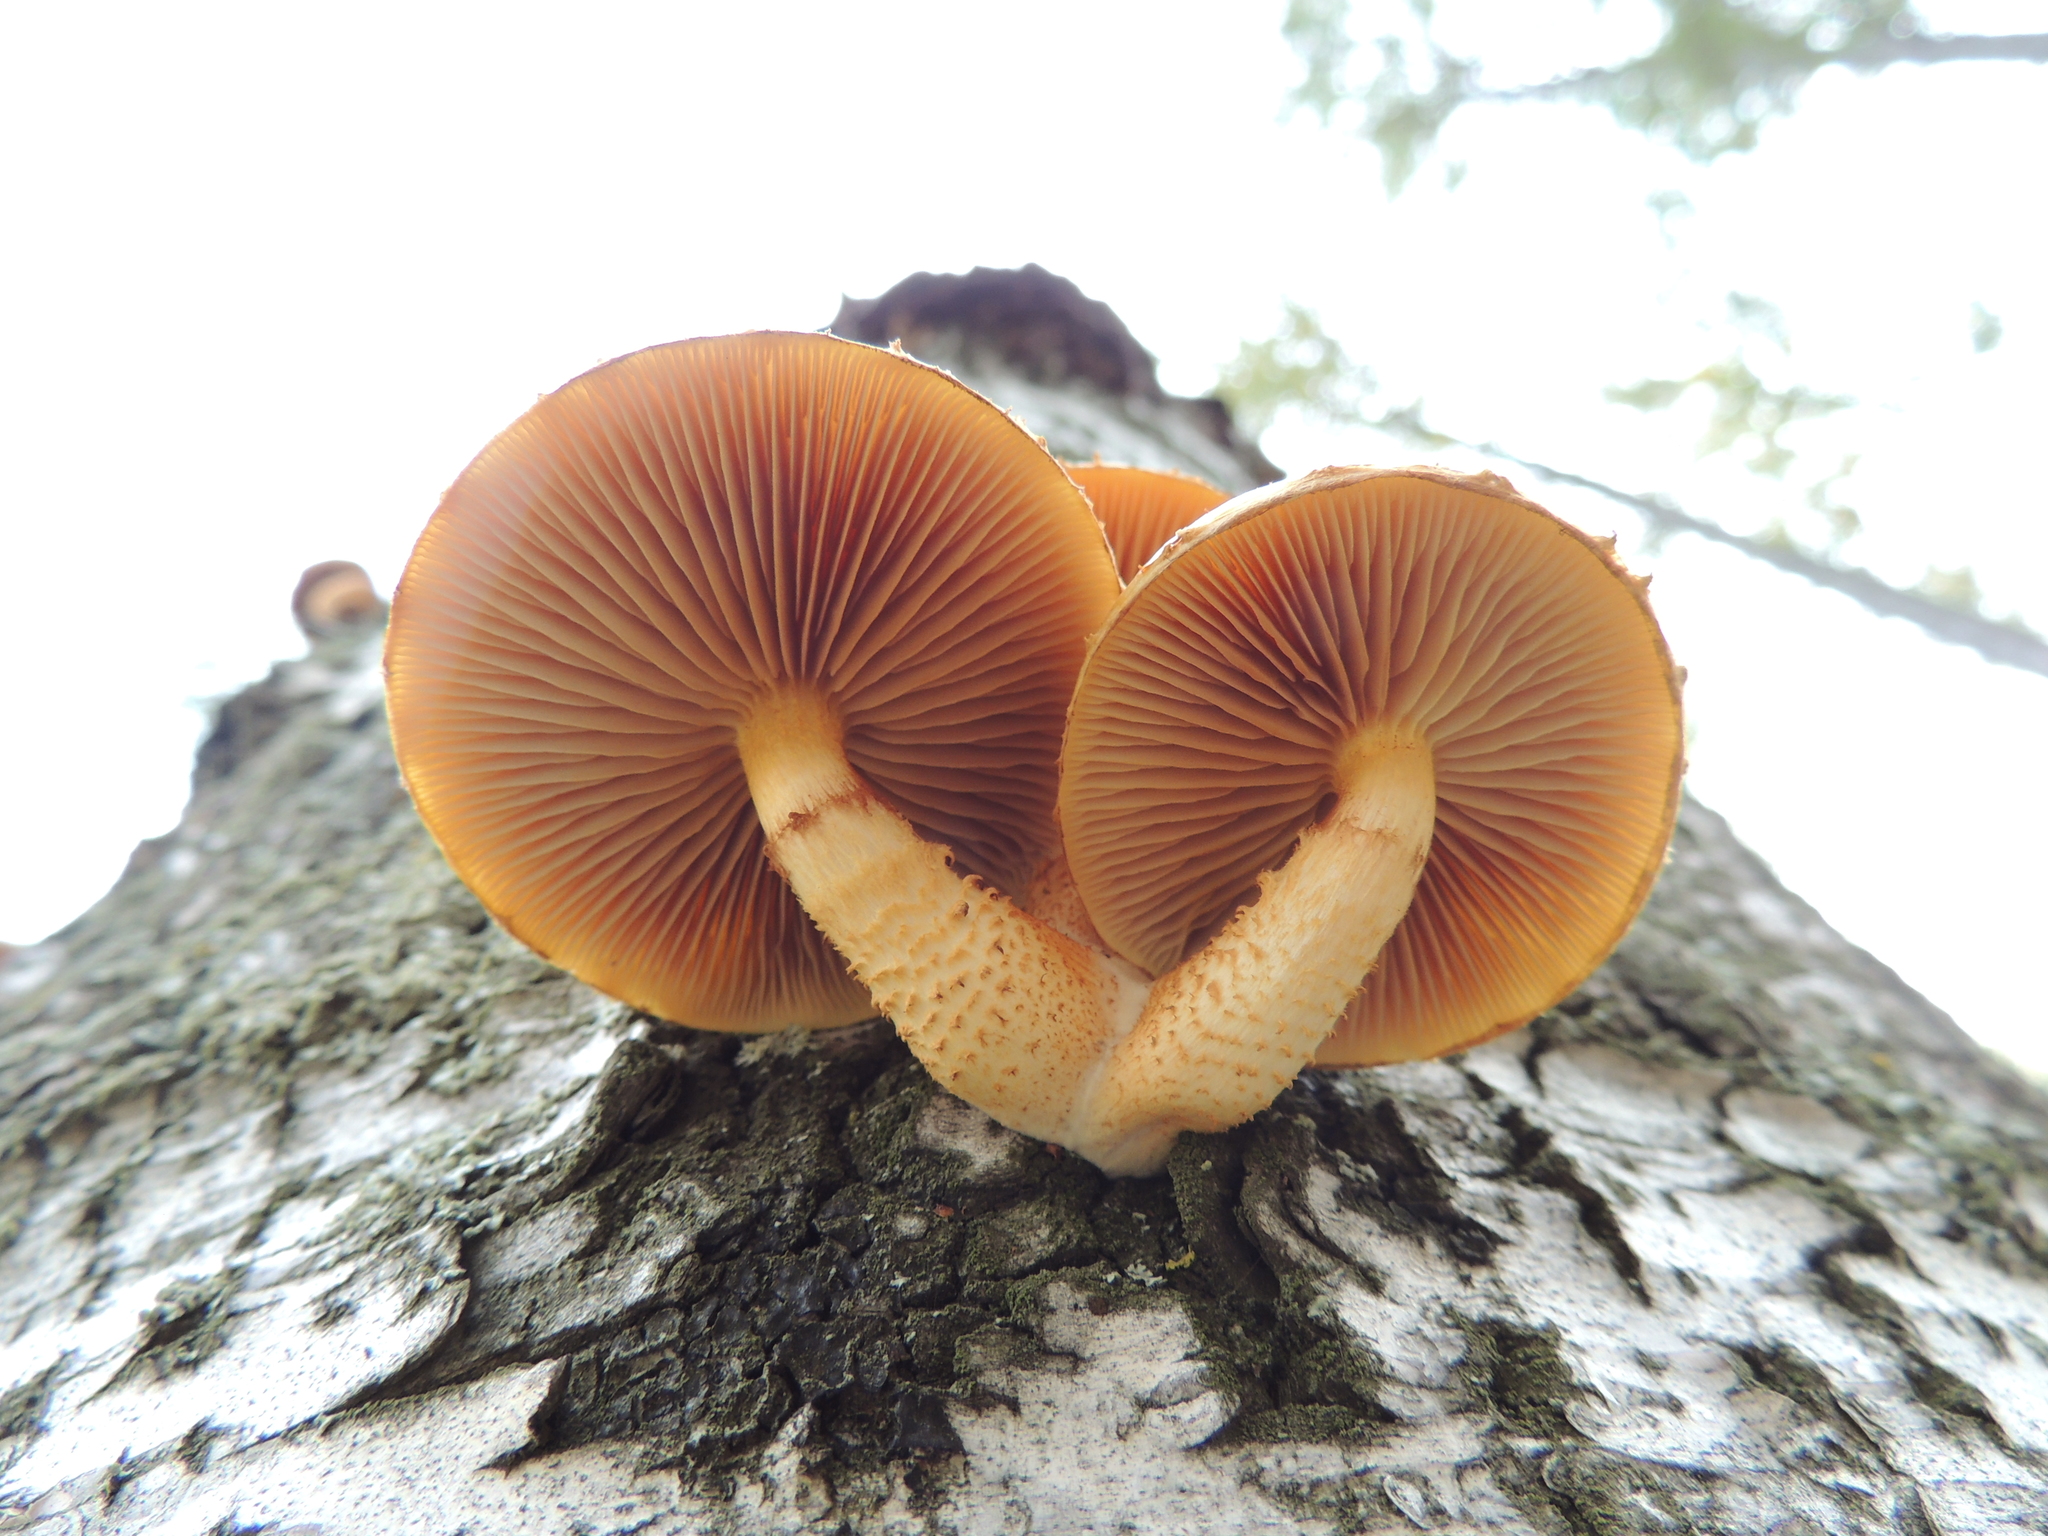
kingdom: Fungi
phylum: Basidiomycota
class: Agaricomycetes
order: Agaricales
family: Strophariaceae
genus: Pholiota
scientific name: Pholiota aurivella
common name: Golden scalycap
